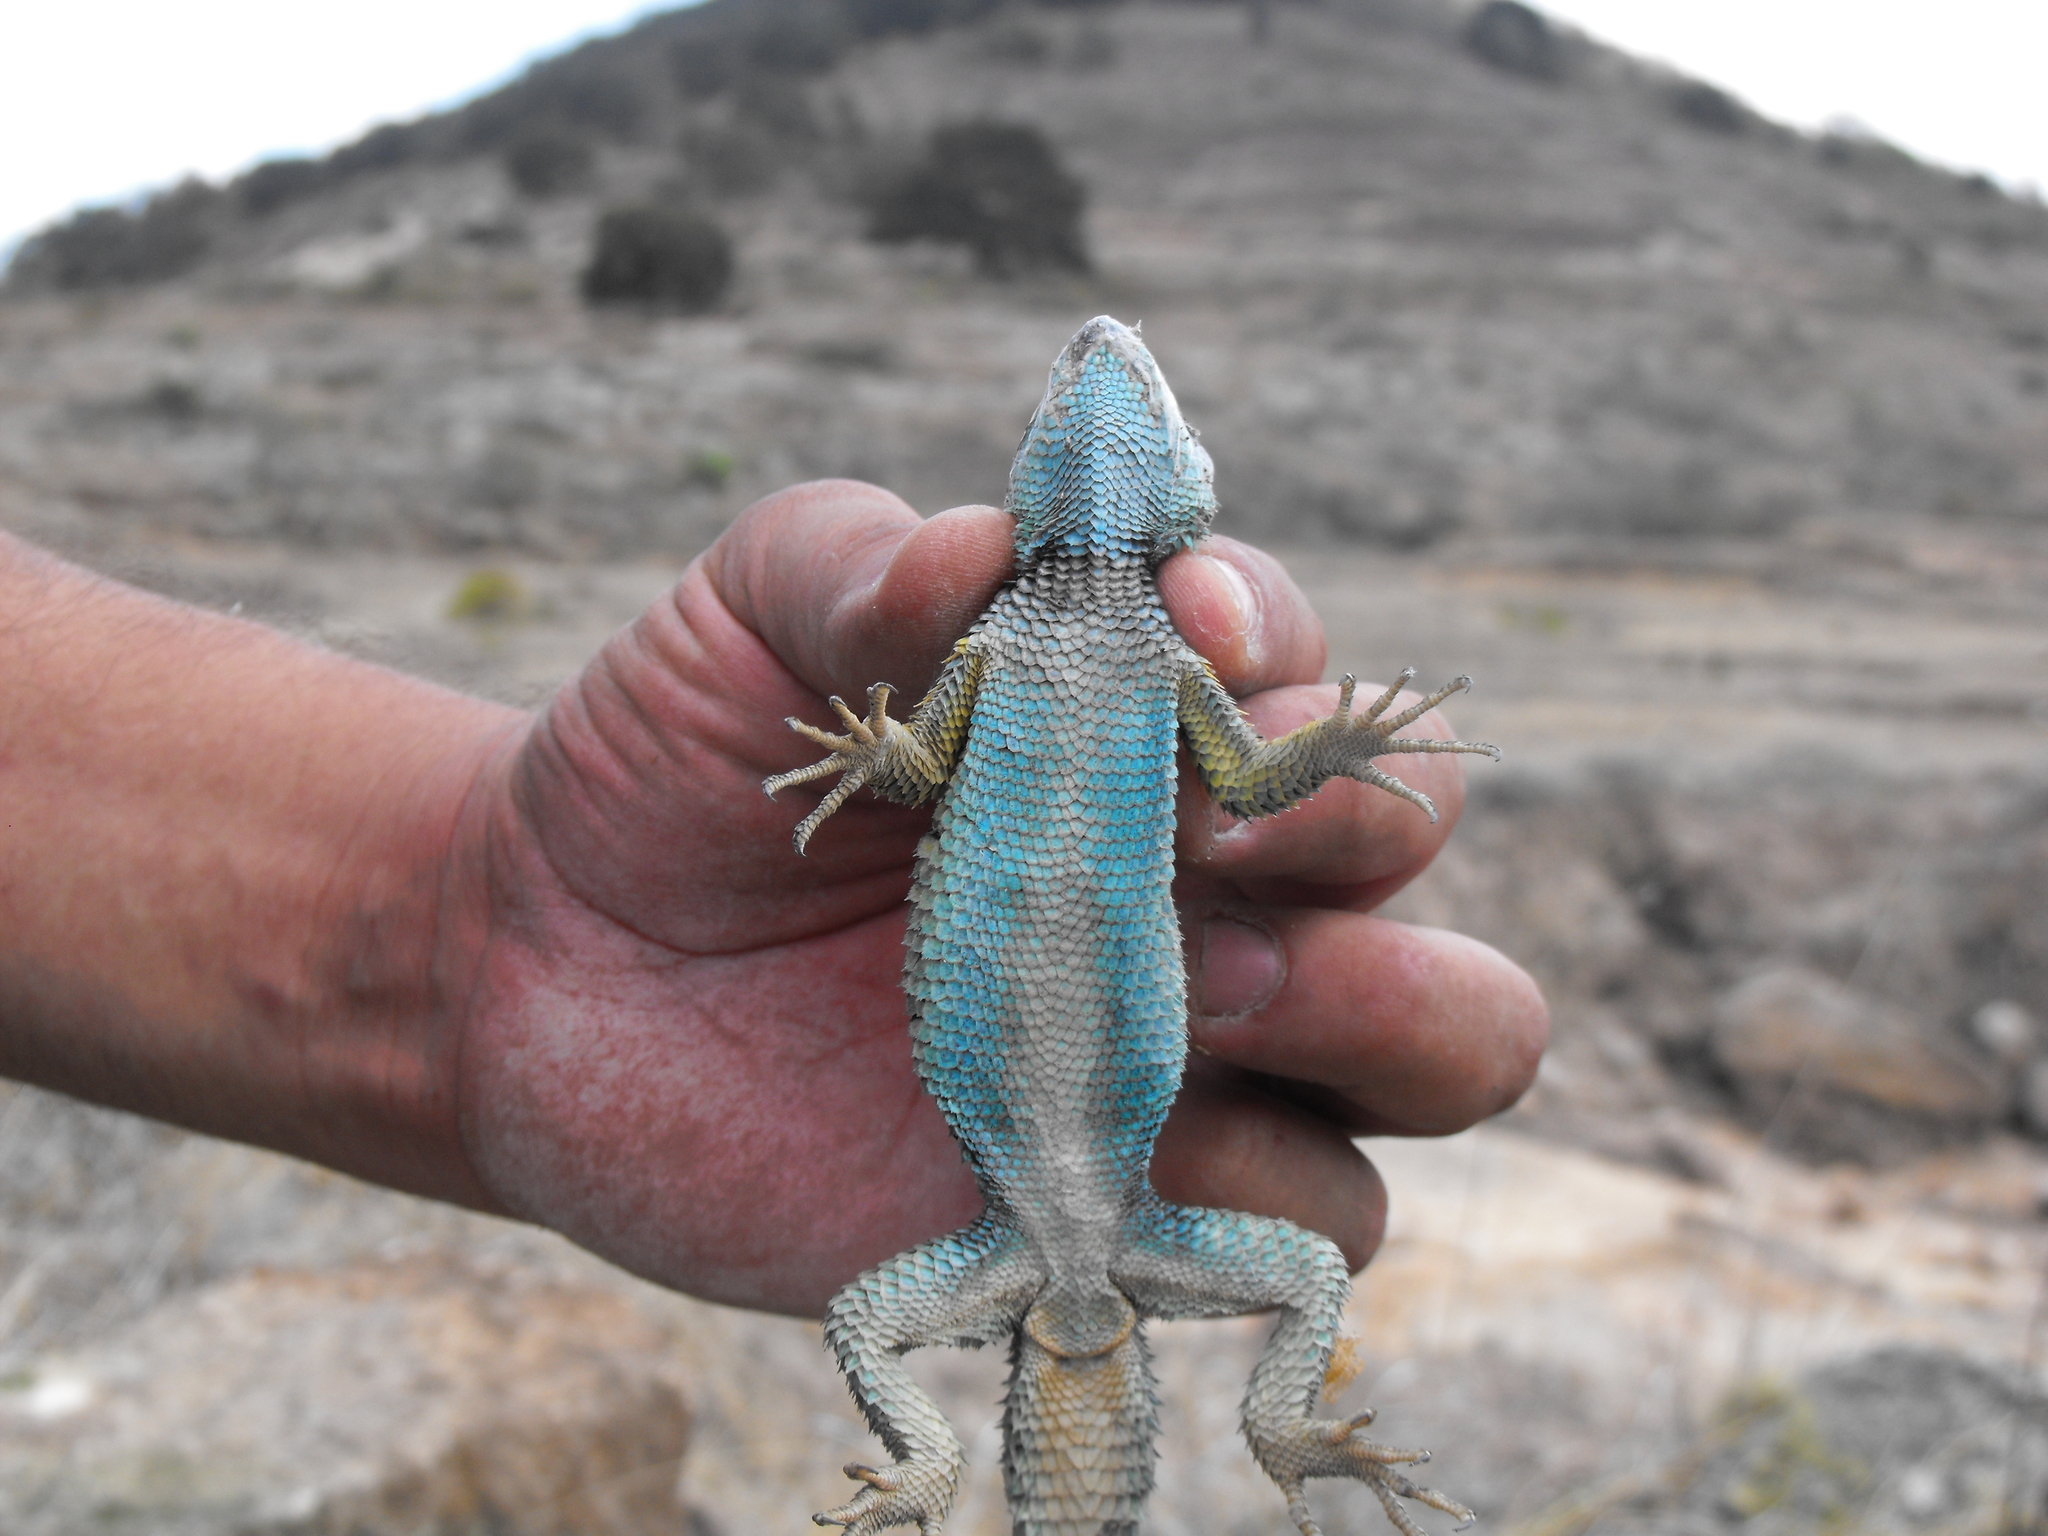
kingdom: Animalia
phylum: Chordata
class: Squamata
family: Phrynosomatidae
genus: Sceloporus
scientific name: Sceloporus aureolus
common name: Eastern cleft spiny lizard
